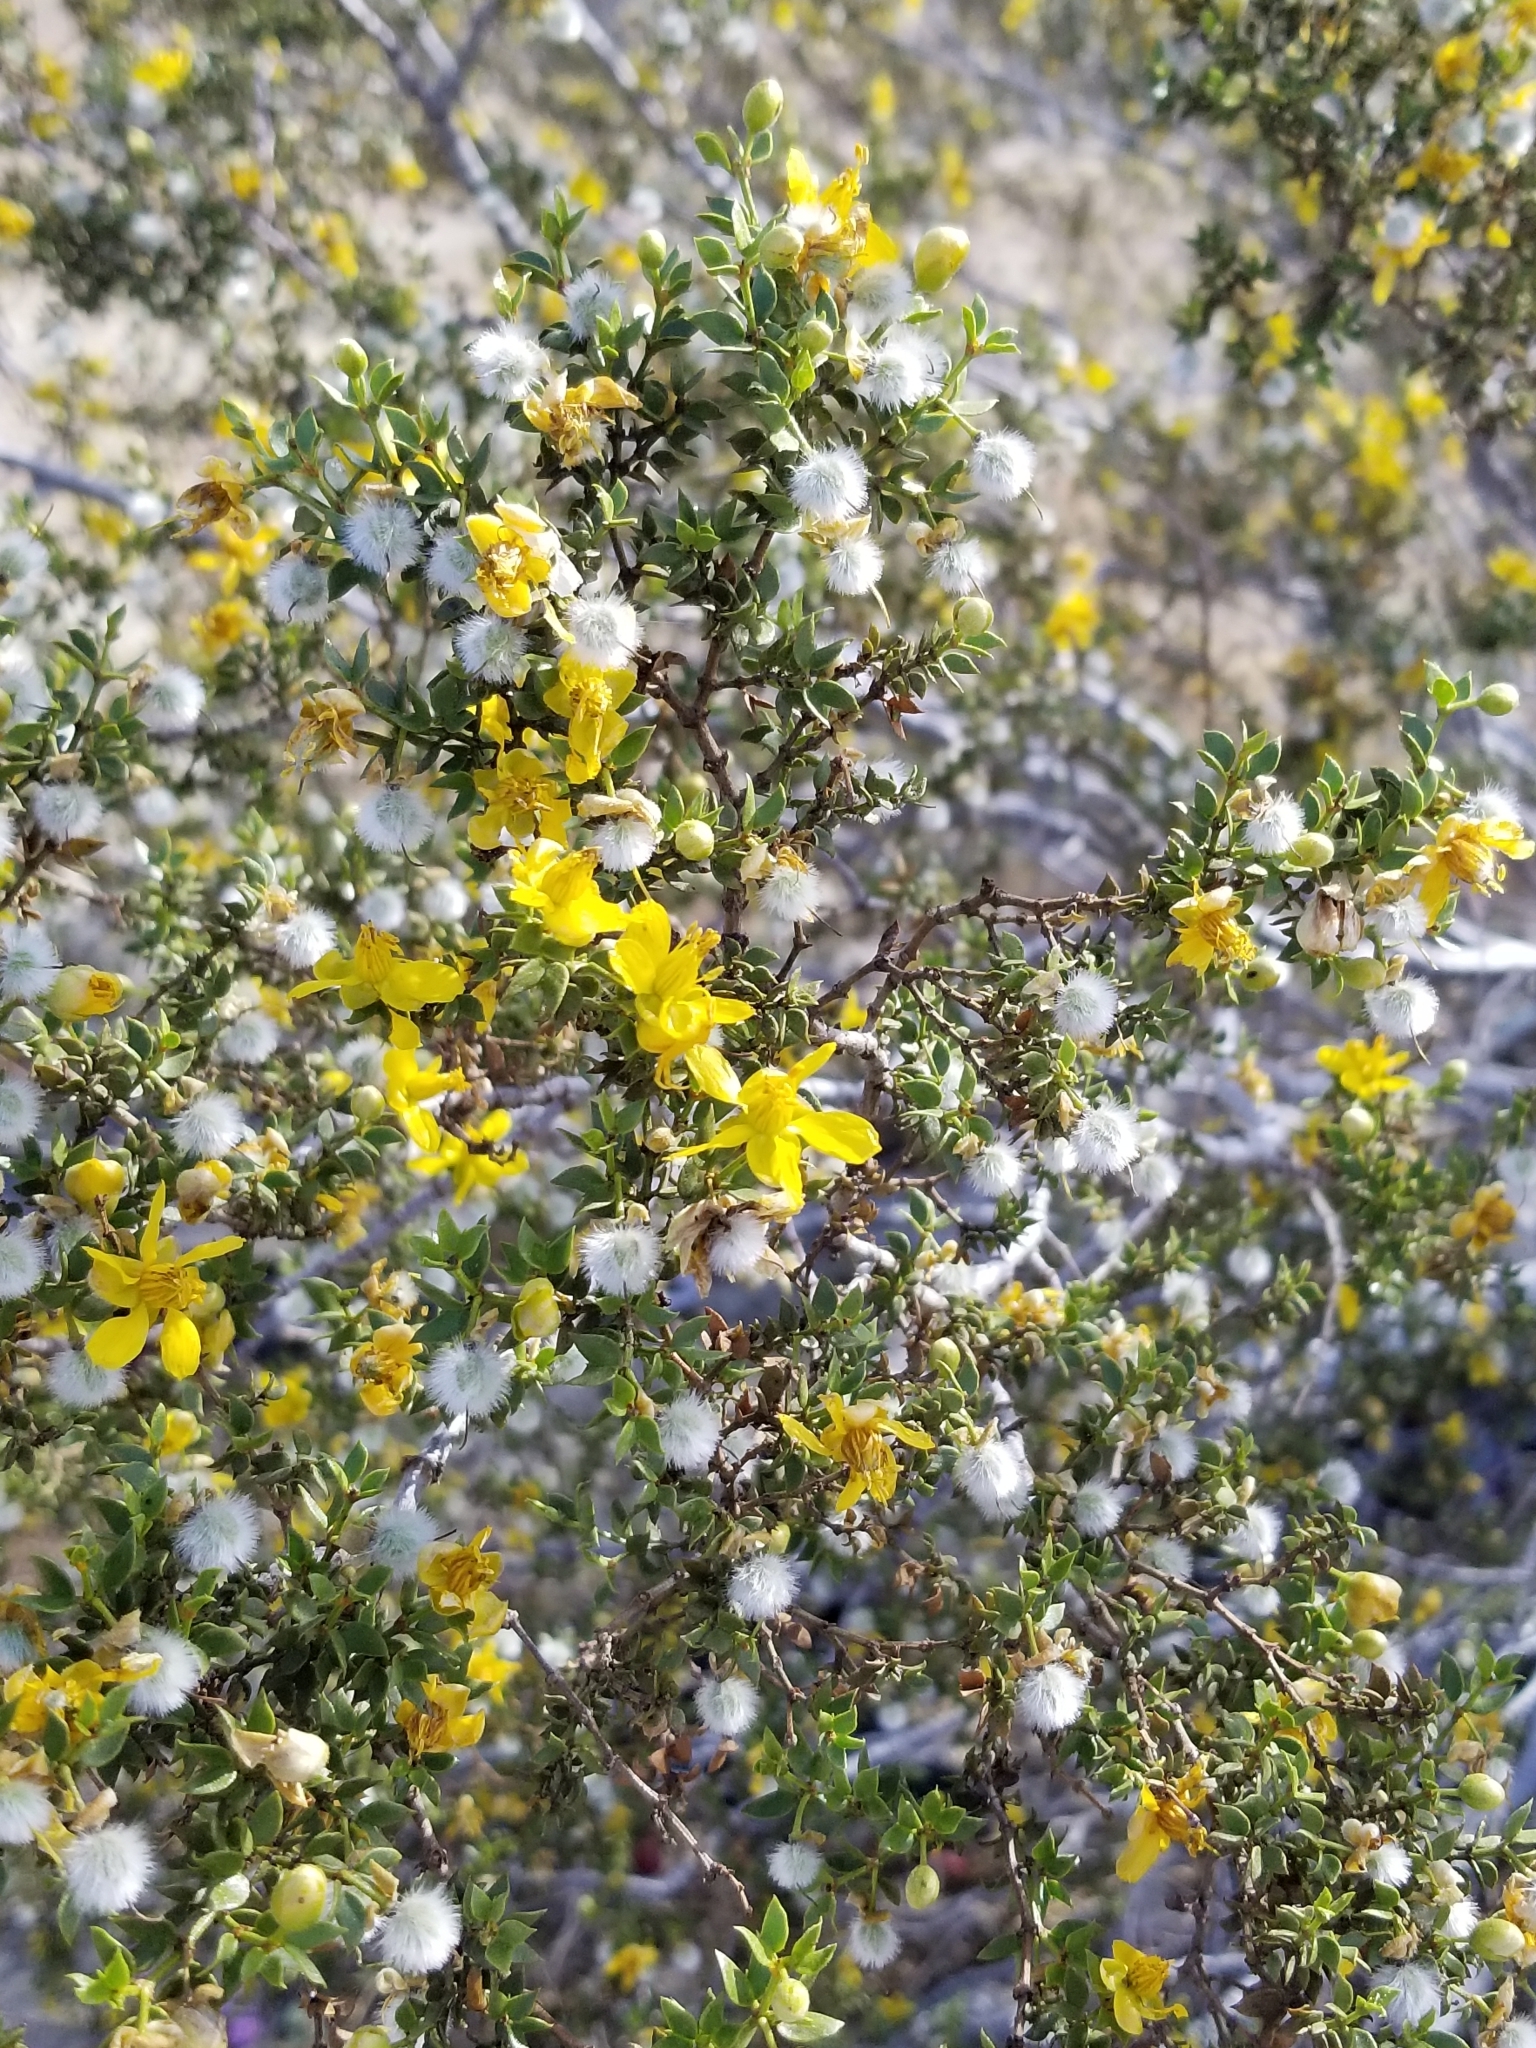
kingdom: Plantae
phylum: Tracheophyta
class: Magnoliopsida
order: Zygophyllales
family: Zygophyllaceae
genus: Larrea
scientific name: Larrea tridentata
